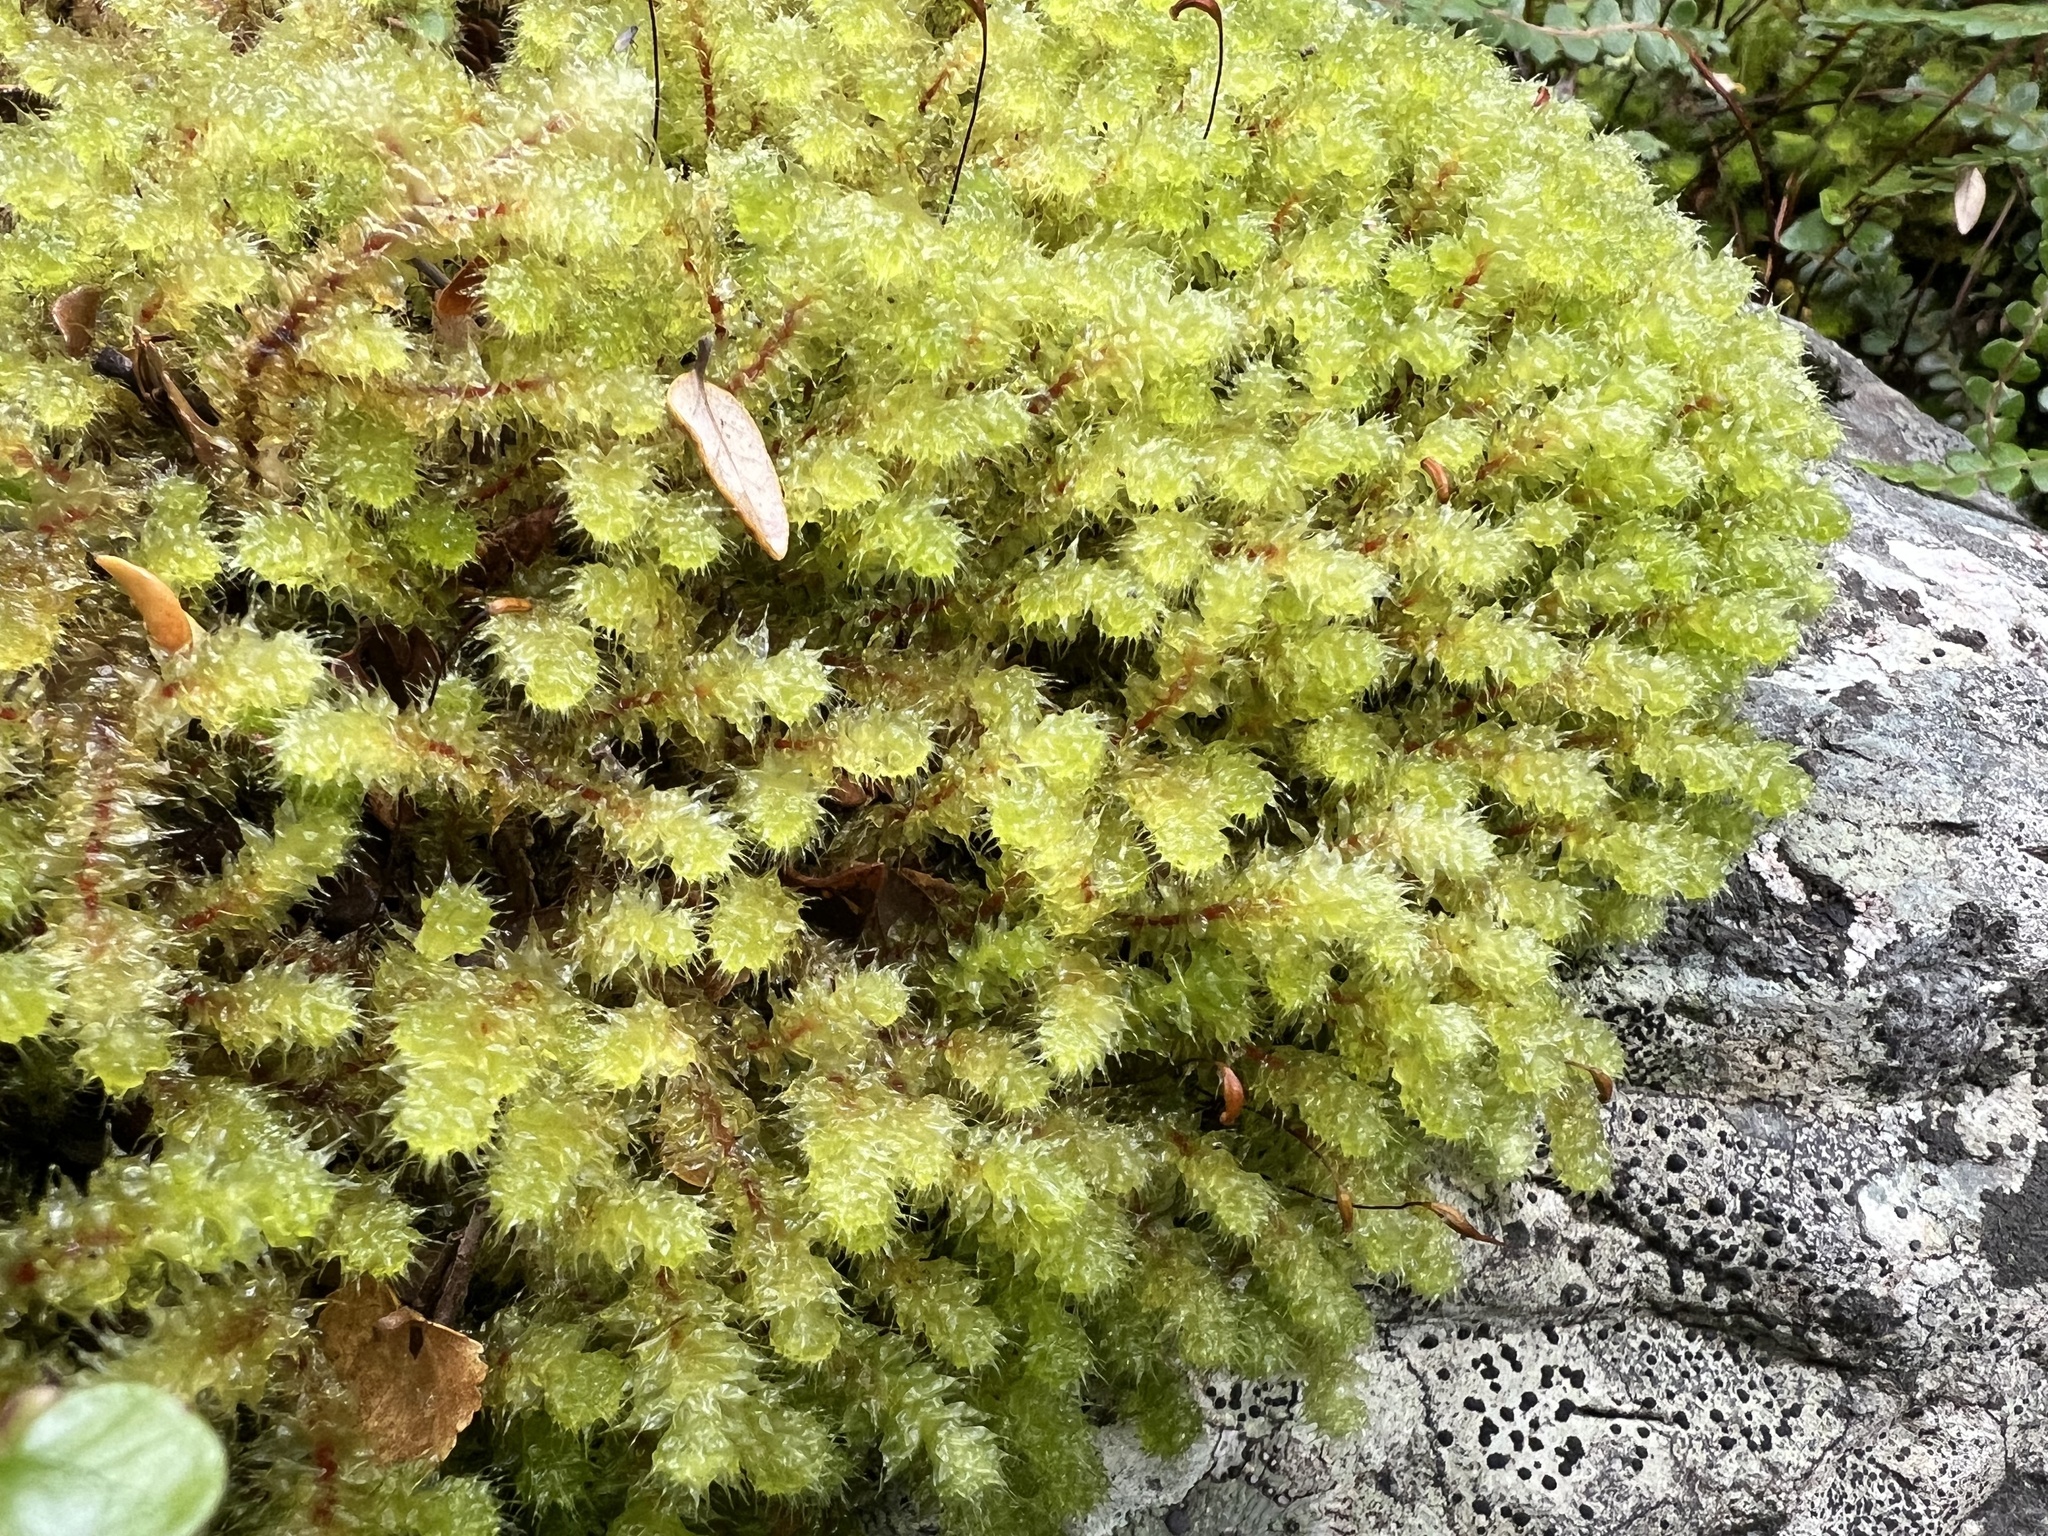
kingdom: Plantae
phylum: Bryophyta
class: Bryopsida
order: Ptychomniales
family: Ptychomniaceae
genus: Ptychomnion
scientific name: Ptychomnion aciculare
